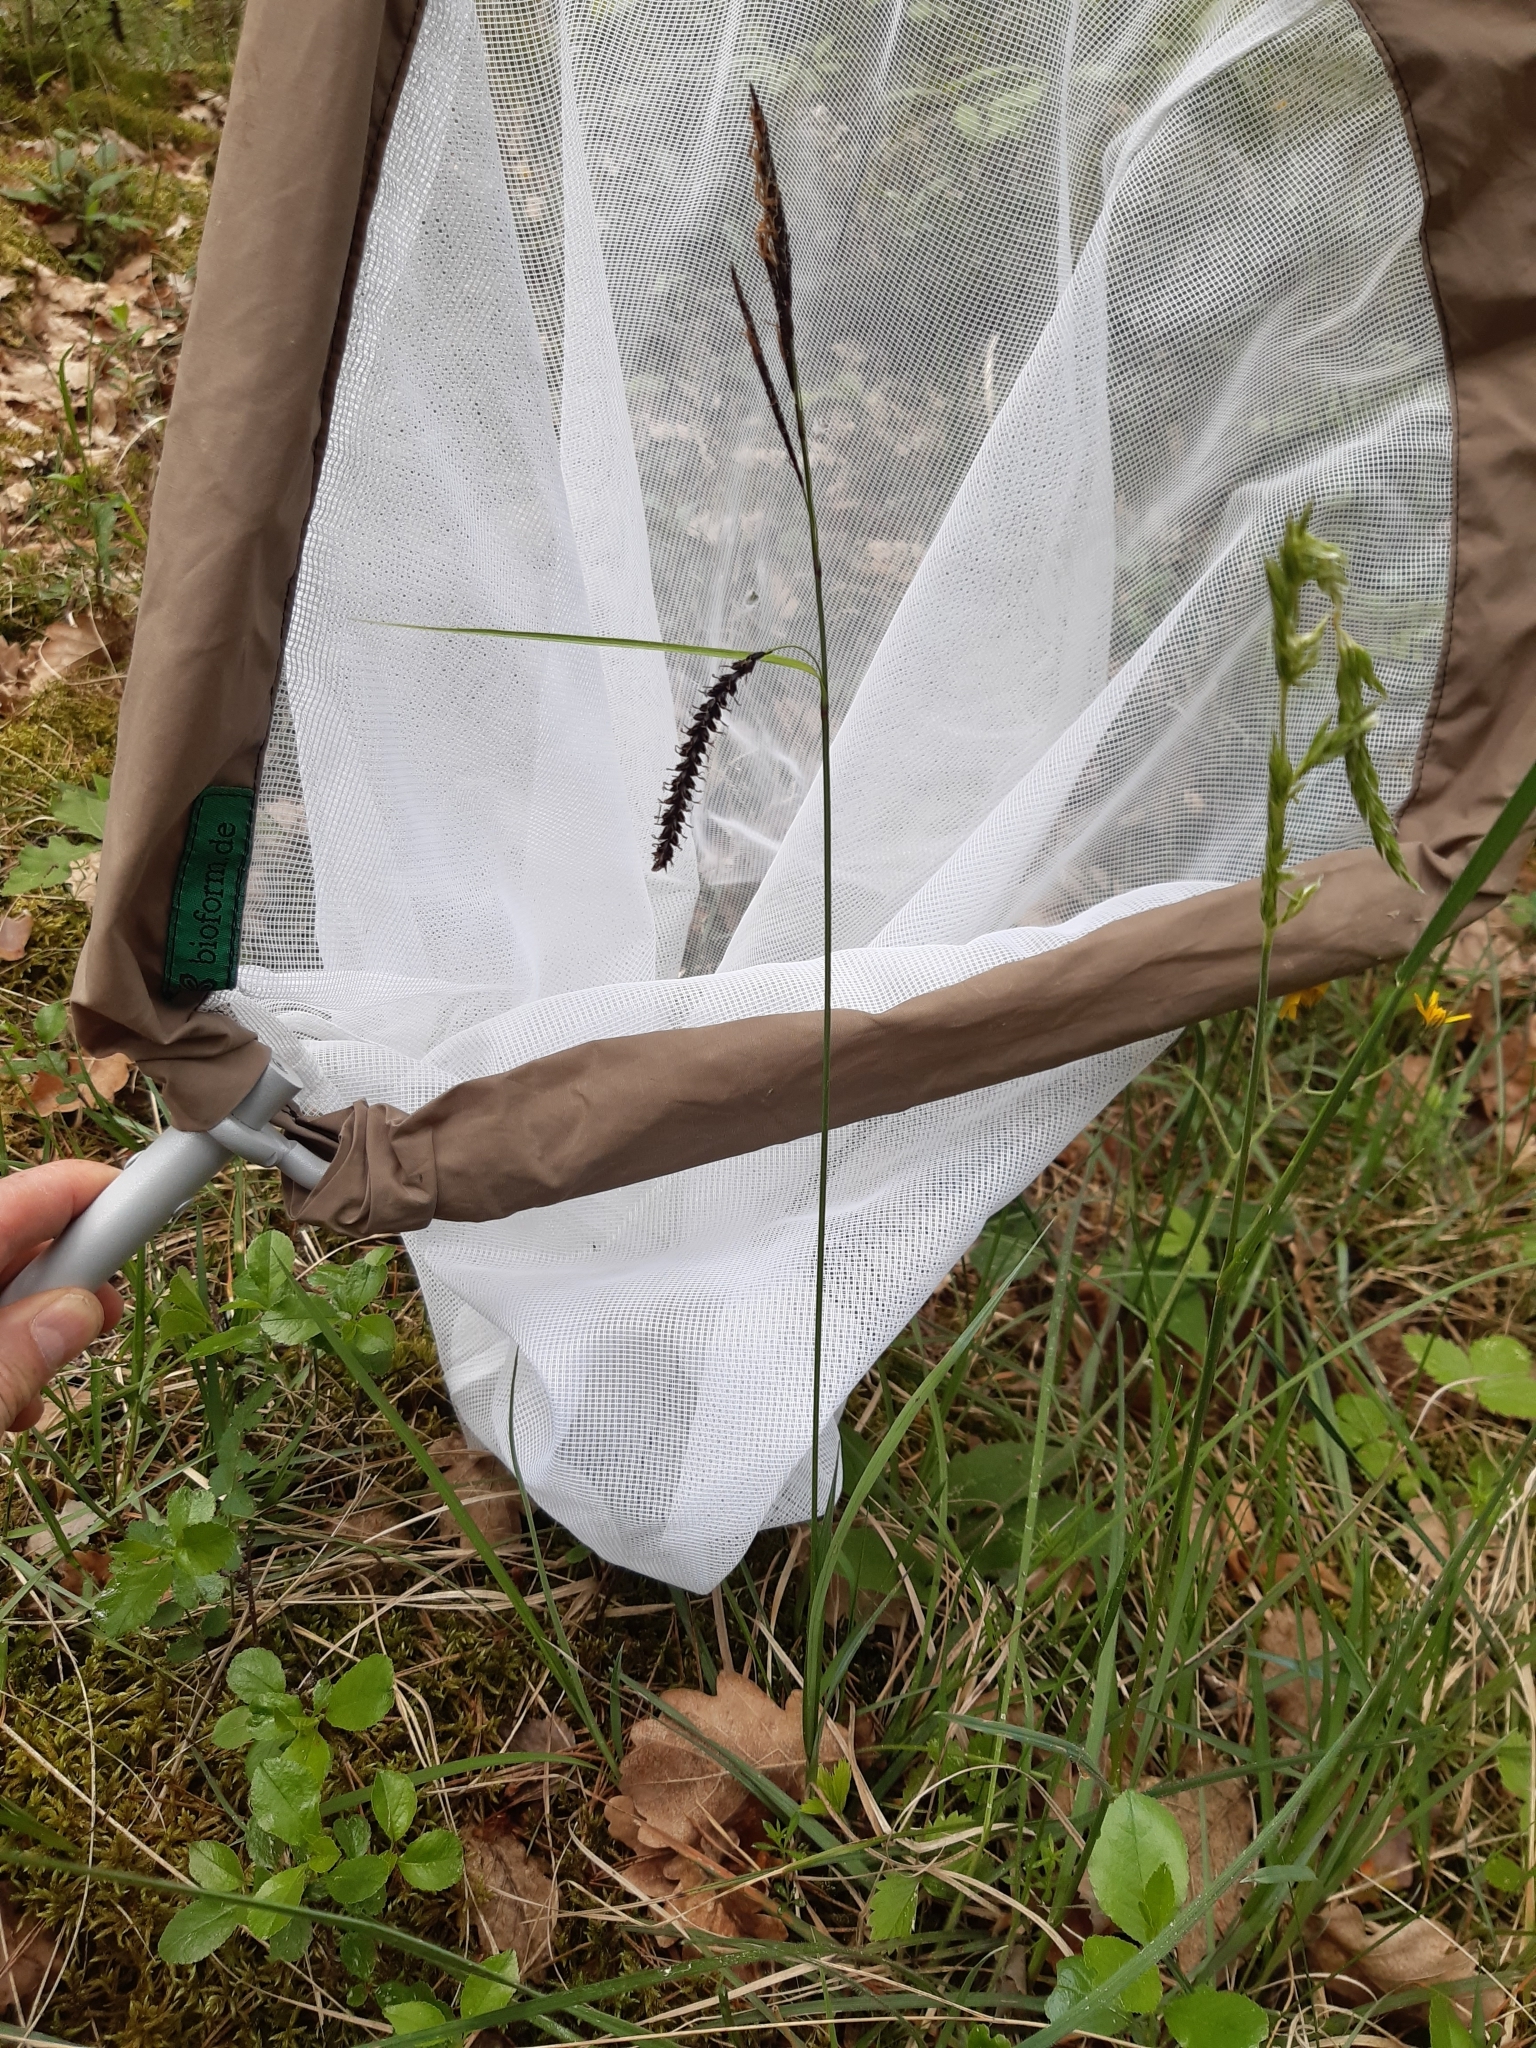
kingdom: Plantae
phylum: Tracheophyta
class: Liliopsida
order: Poales
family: Cyperaceae
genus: Carex
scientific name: Carex flacca
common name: Glaucous sedge
